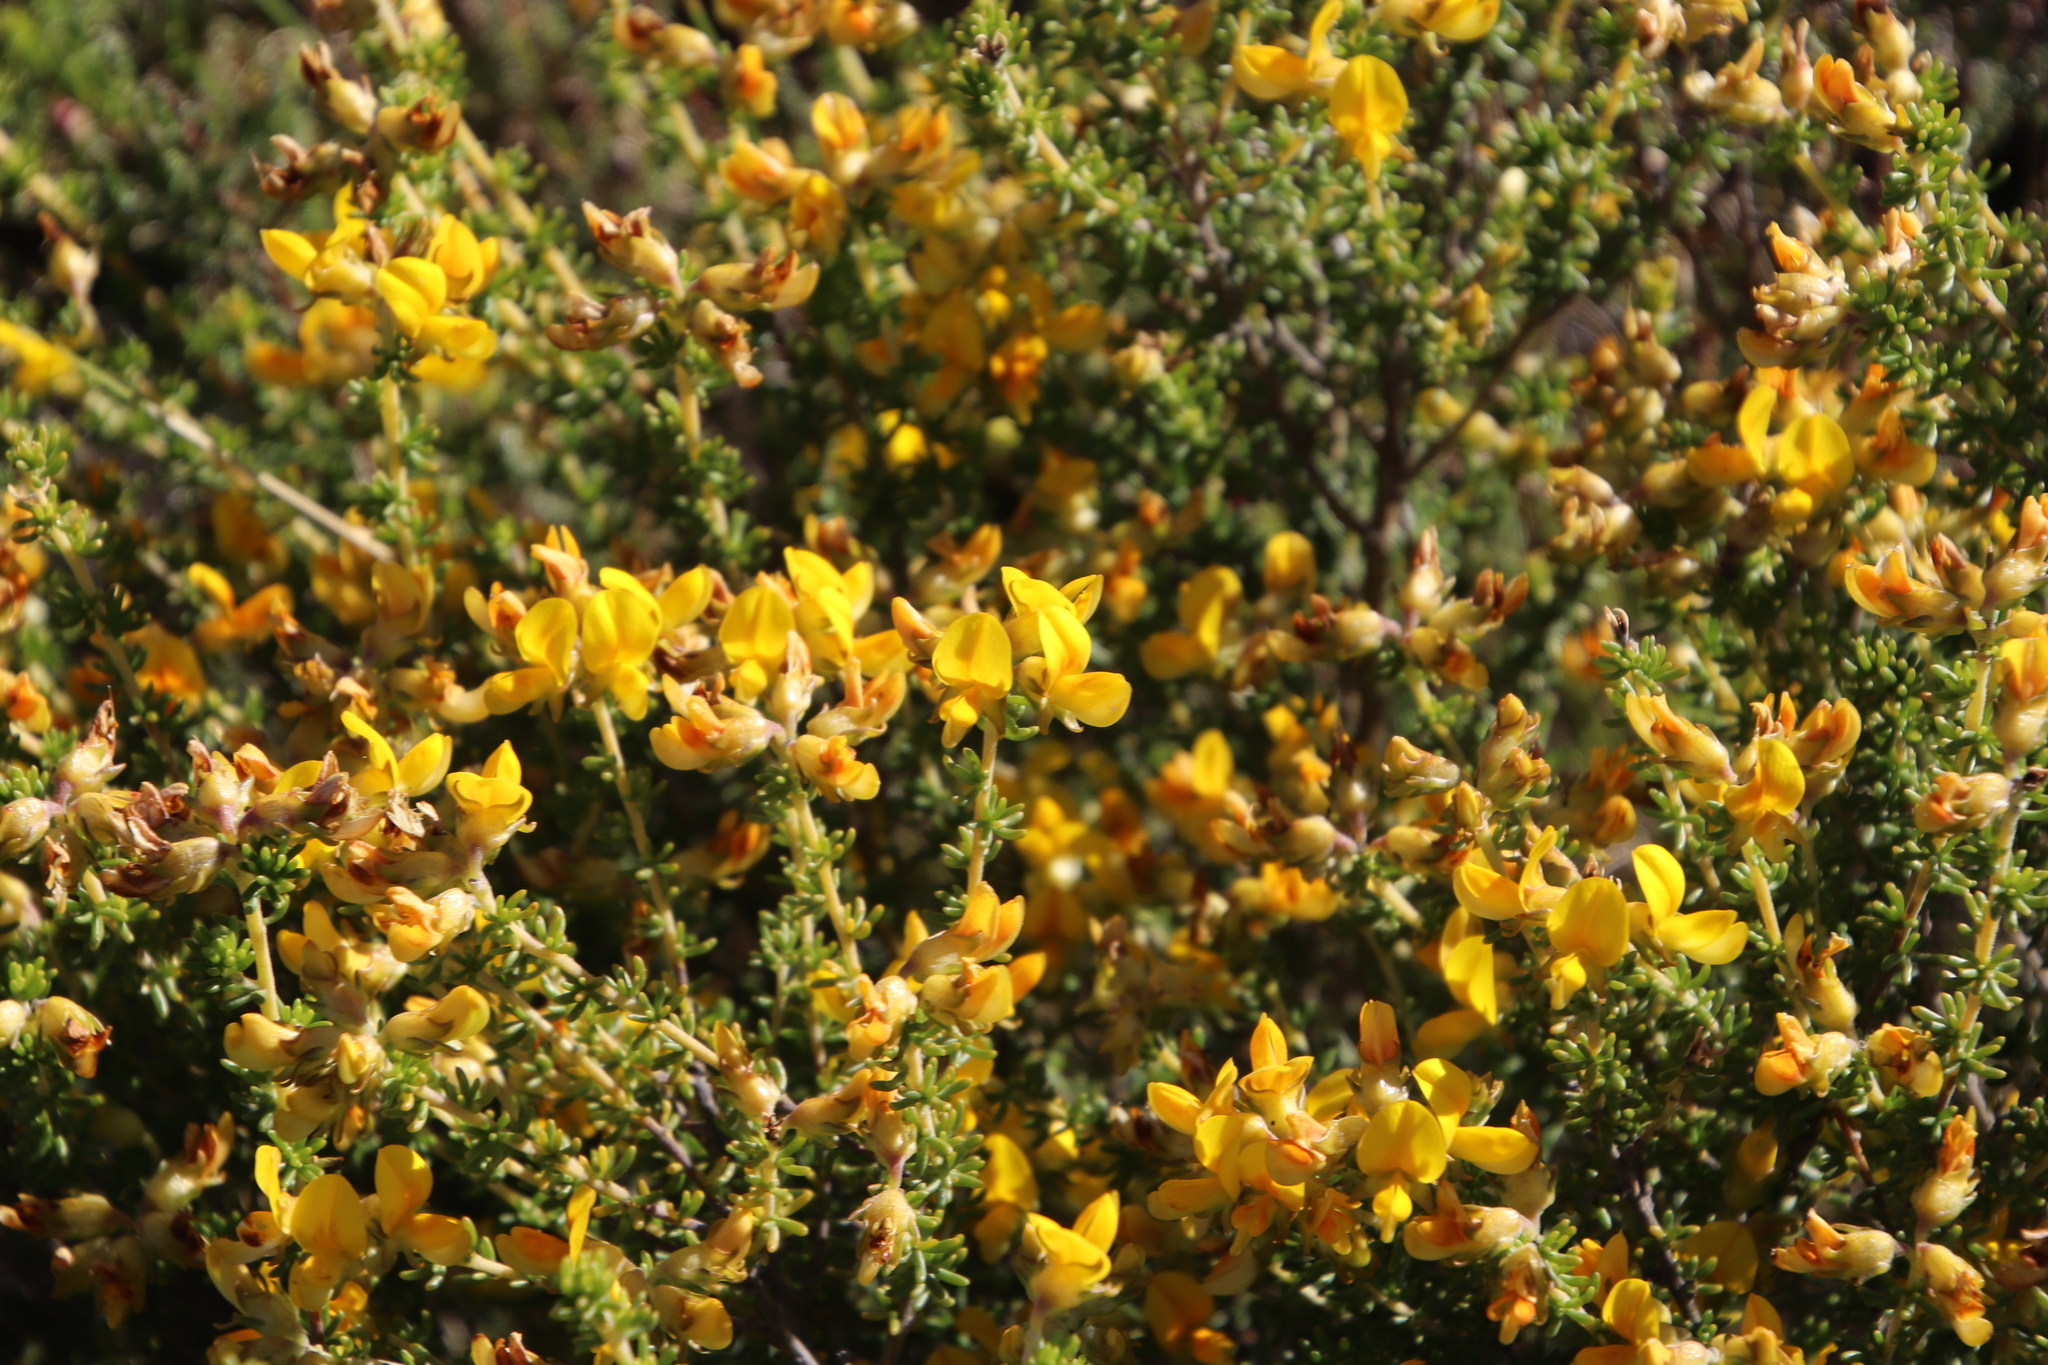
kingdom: Plantae
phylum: Tracheophyta
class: Magnoliopsida
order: Fabales
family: Fabaceae
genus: Aspalathus
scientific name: Aspalathus carnosa
